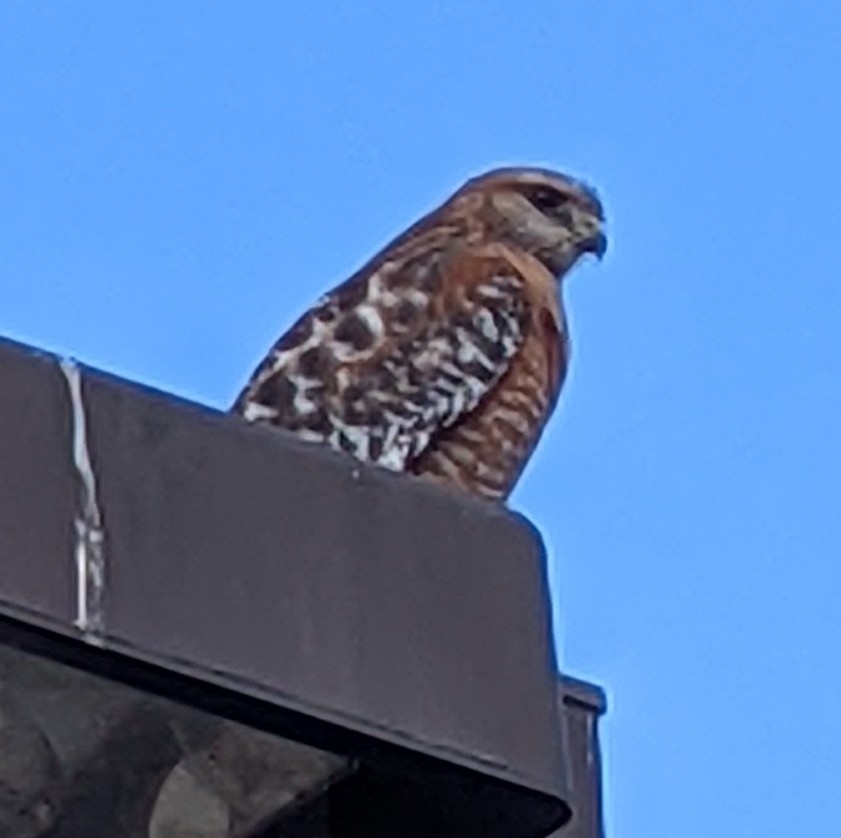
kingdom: Animalia
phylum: Chordata
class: Aves
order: Accipitriformes
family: Accipitridae
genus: Buteo
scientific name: Buteo lineatus
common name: Red-shouldered hawk
